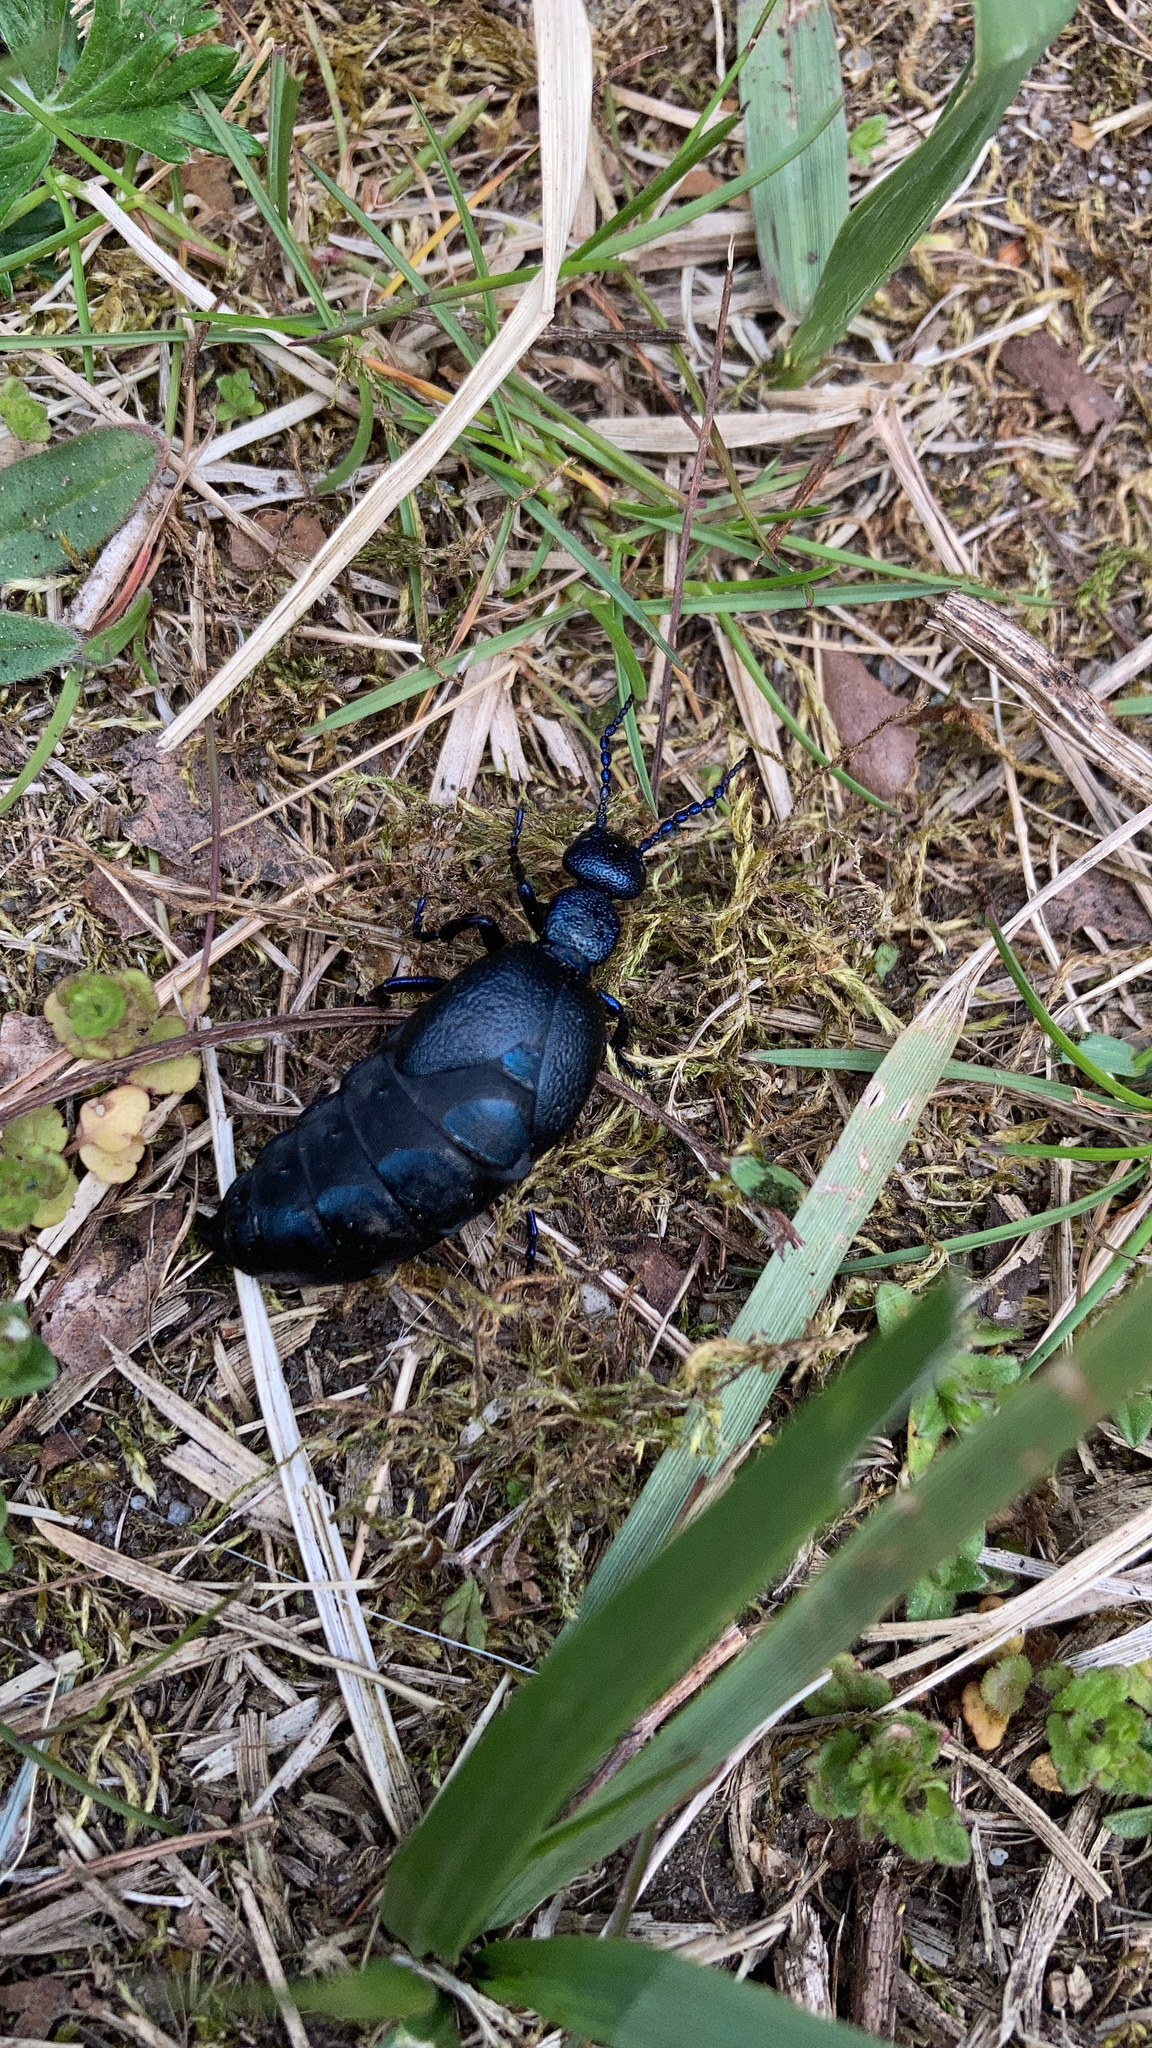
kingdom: Animalia
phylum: Arthropoda
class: Insecta
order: Coleoptera
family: Meloidae
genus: Meloe
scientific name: Meloe proscarabaeus
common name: Black oil-beetle
